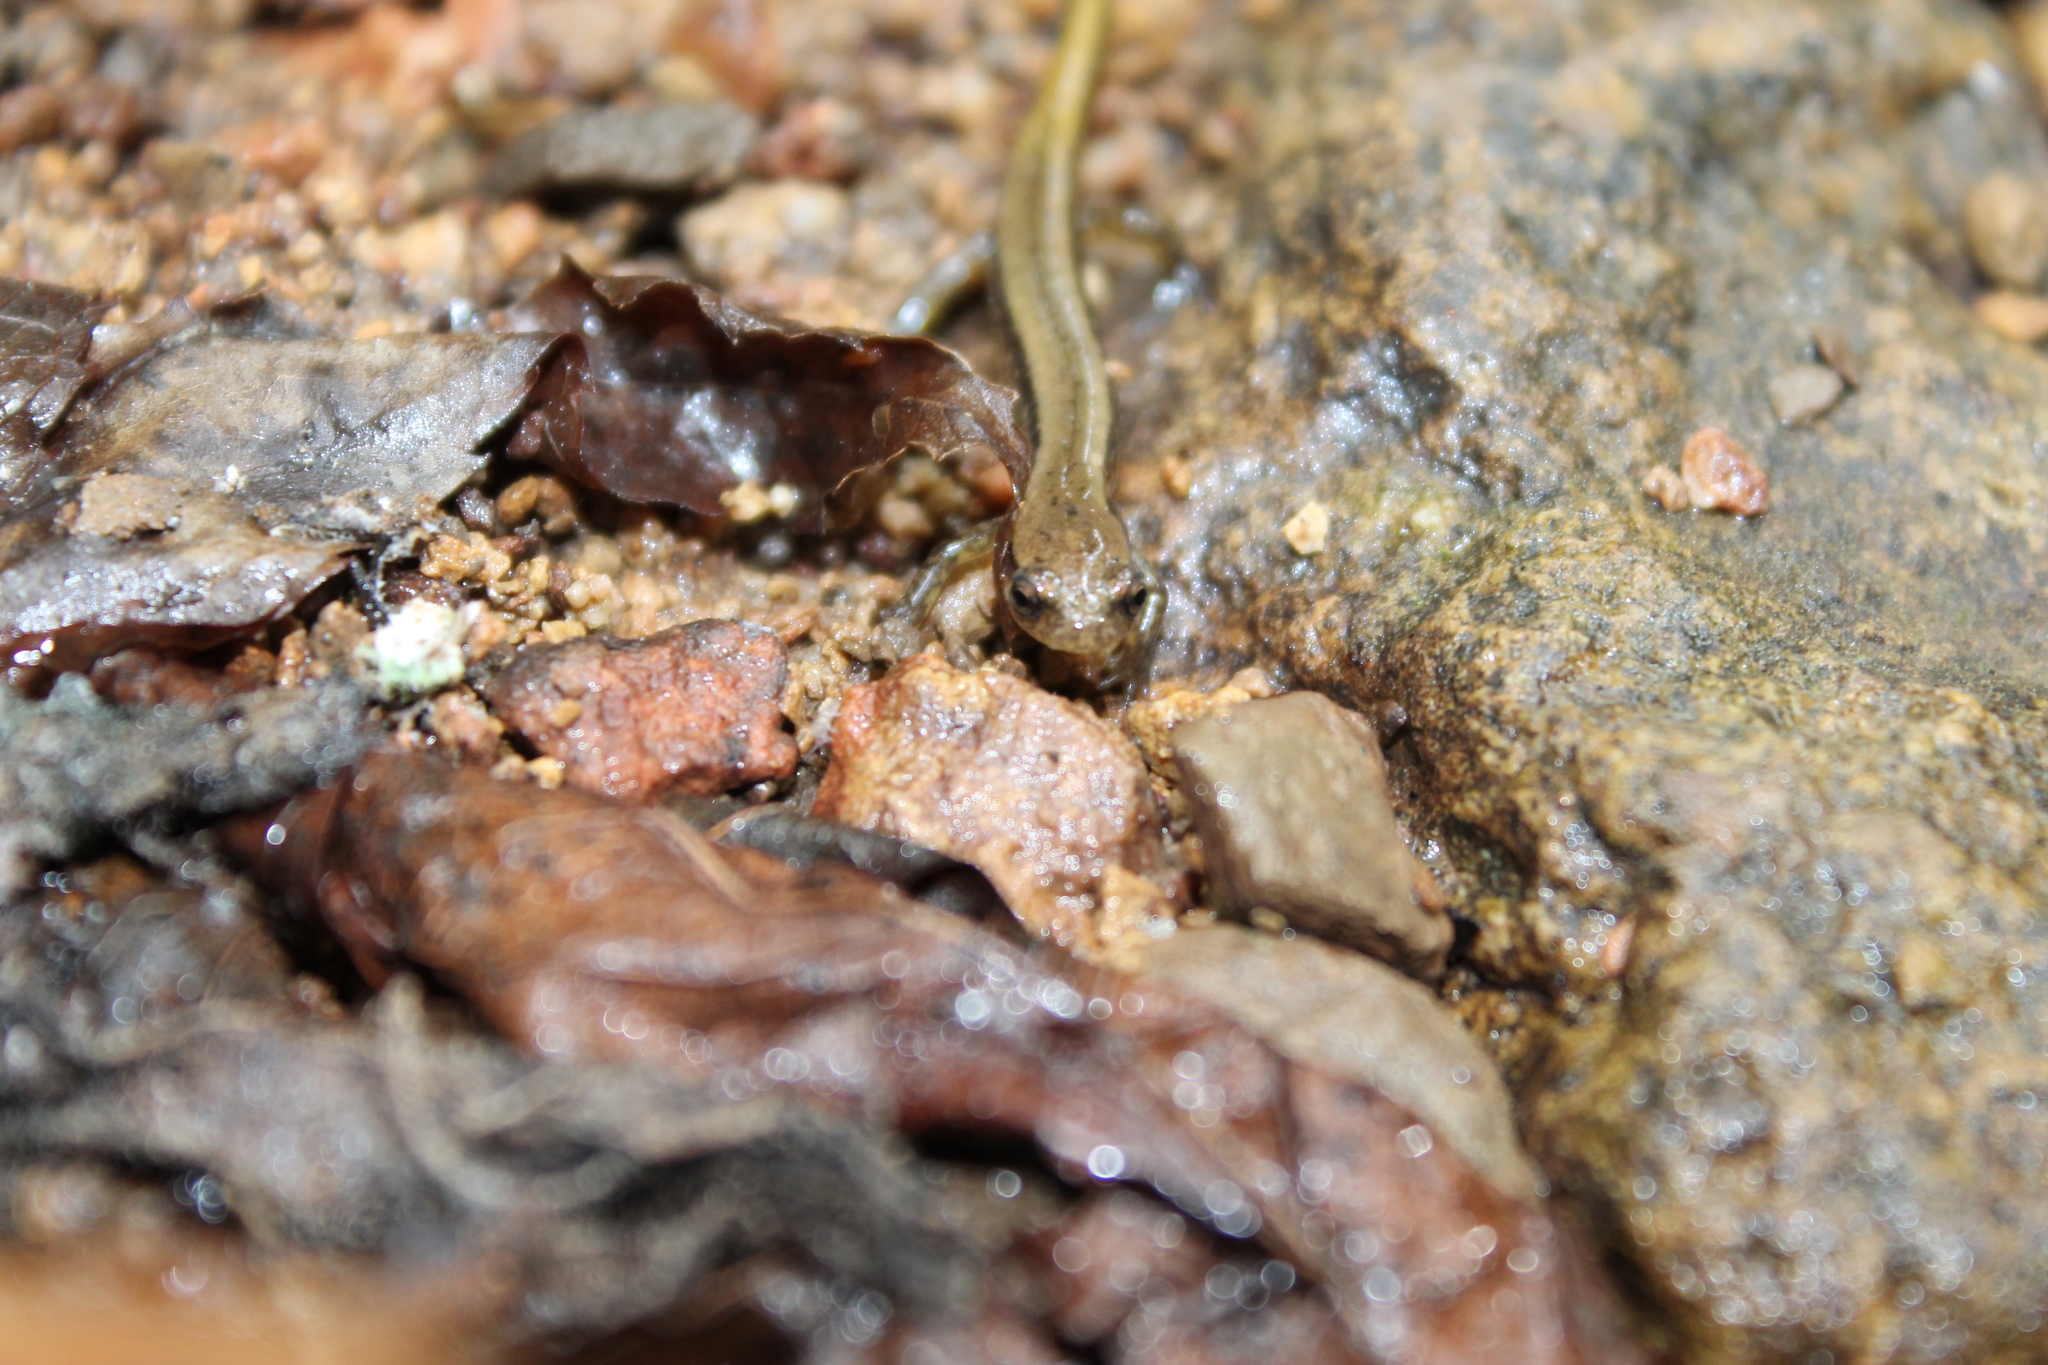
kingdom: Animalia
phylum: Chordata
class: Amphibia
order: Caudata
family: Plethodontidae
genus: Eurycea
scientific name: Eurycea cirrigera
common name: Southern two-lined salamander
